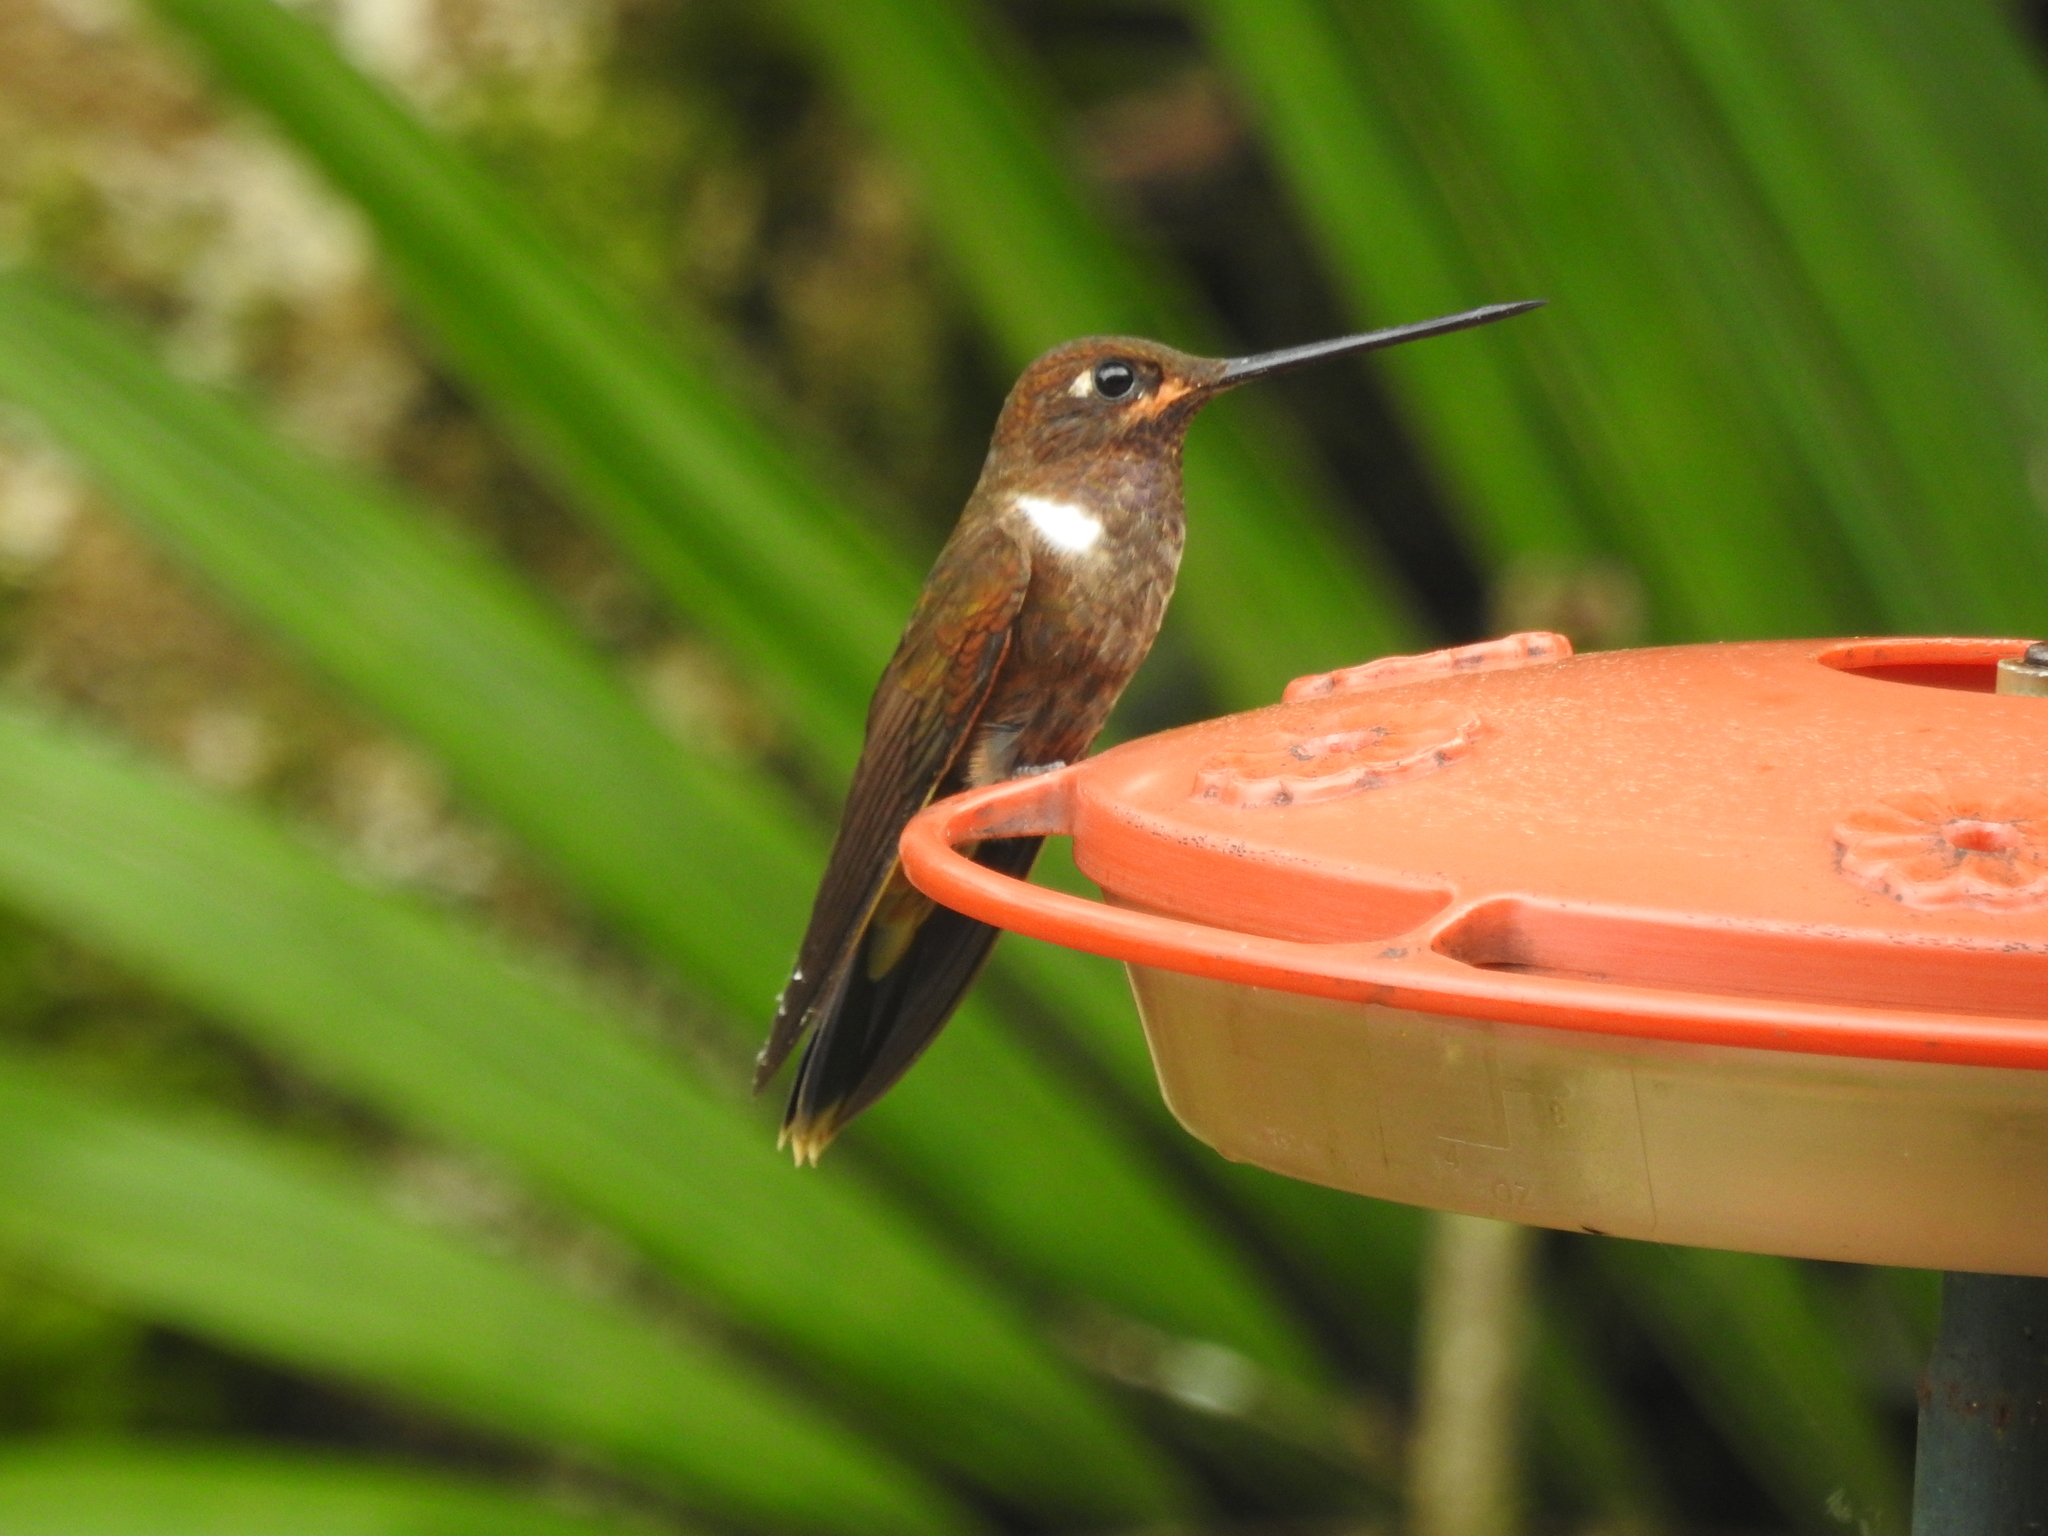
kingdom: Animalia
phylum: Chordata
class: Aves
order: Apodiformes
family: Trochilidae
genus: Coeligena
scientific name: Coeligena wilsoni
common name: Brown inca
